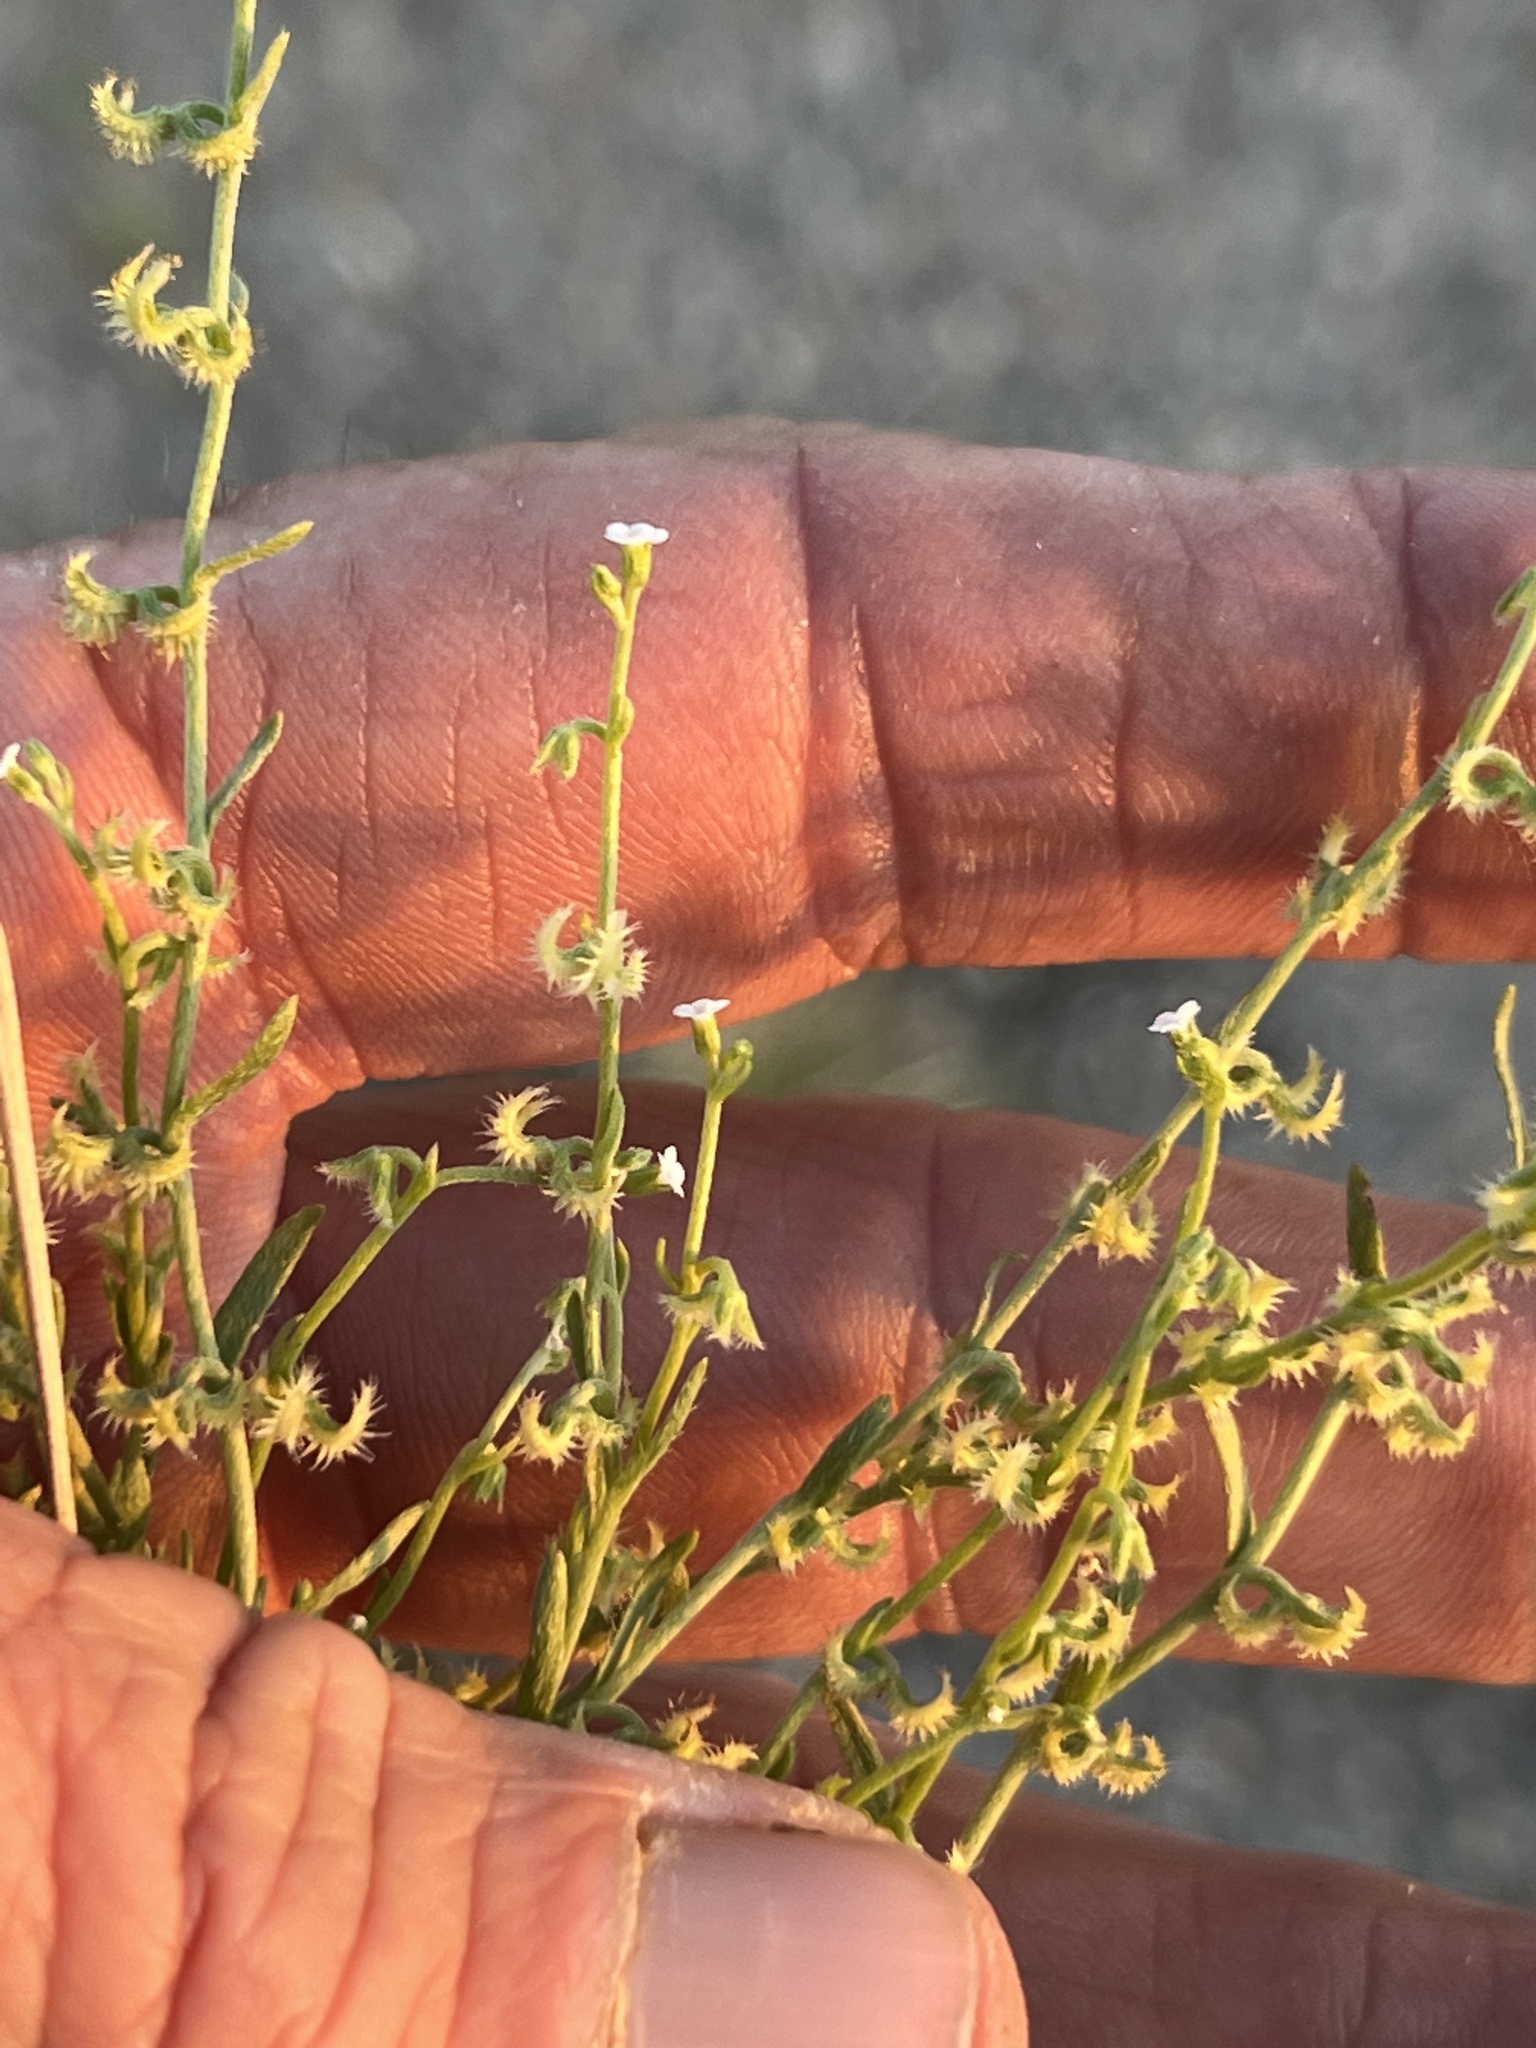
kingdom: Plantae
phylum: Tracheophyta
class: Magnoliopsida
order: Boraginales
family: Boraginaceae
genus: Pectocarya
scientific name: Pectocarya recurvata
